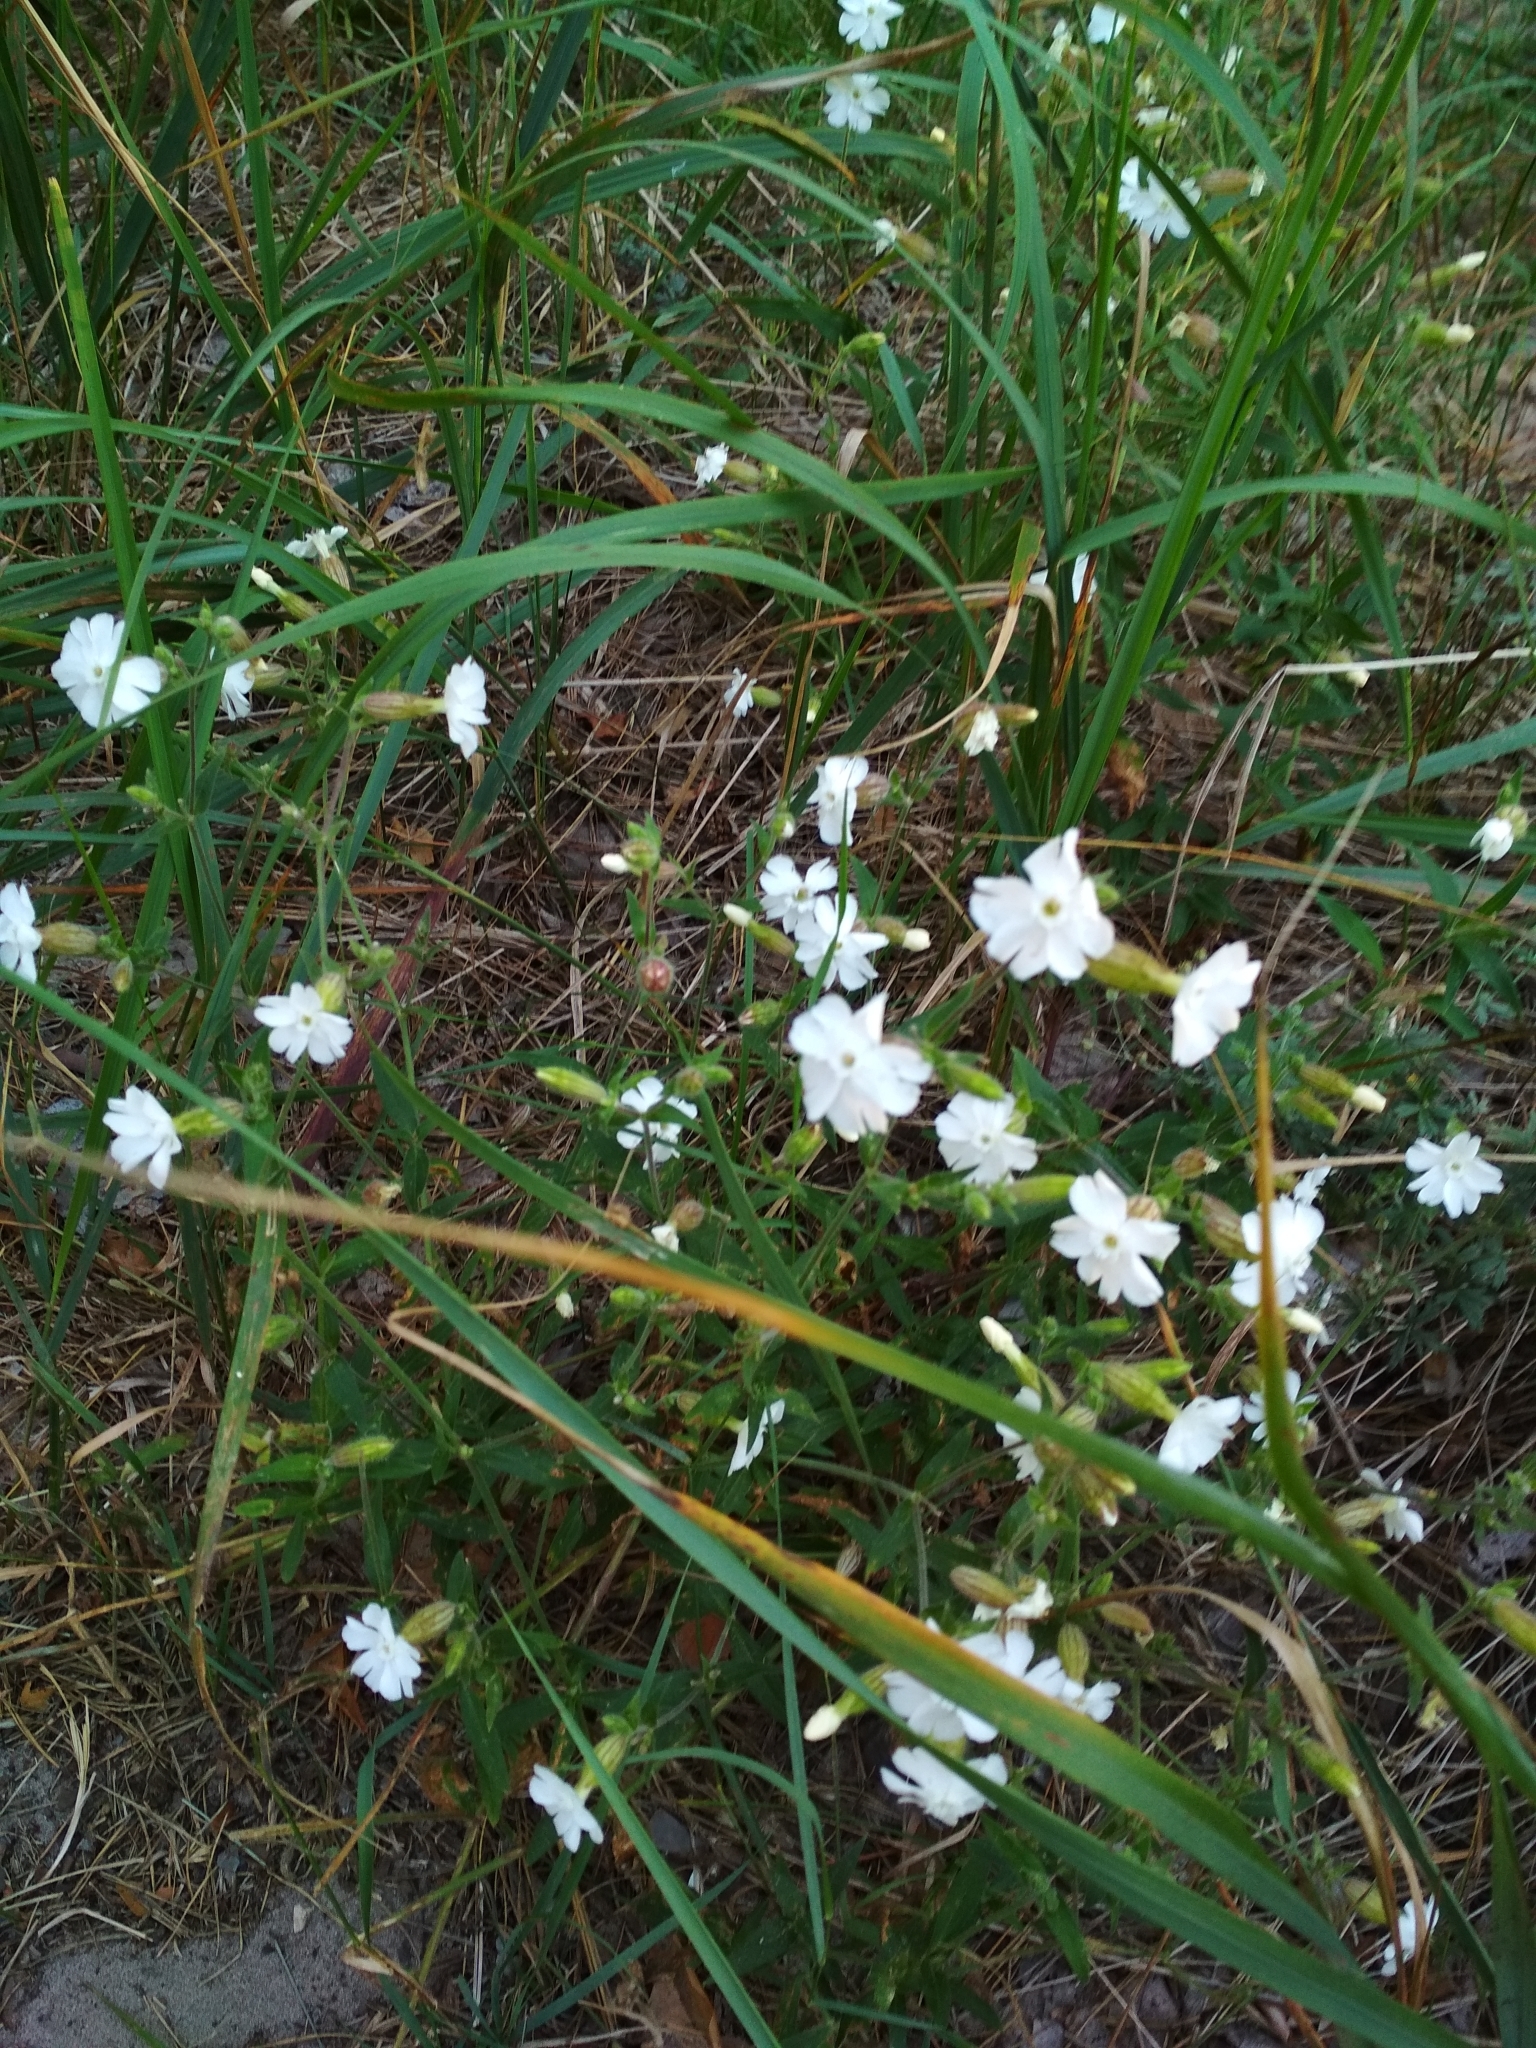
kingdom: Plantae
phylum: Tracheophyta
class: Magnoliopsida
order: Caryophyllales
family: Caryophyllaceae
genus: Silene
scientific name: Silene latifolia
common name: White campion
